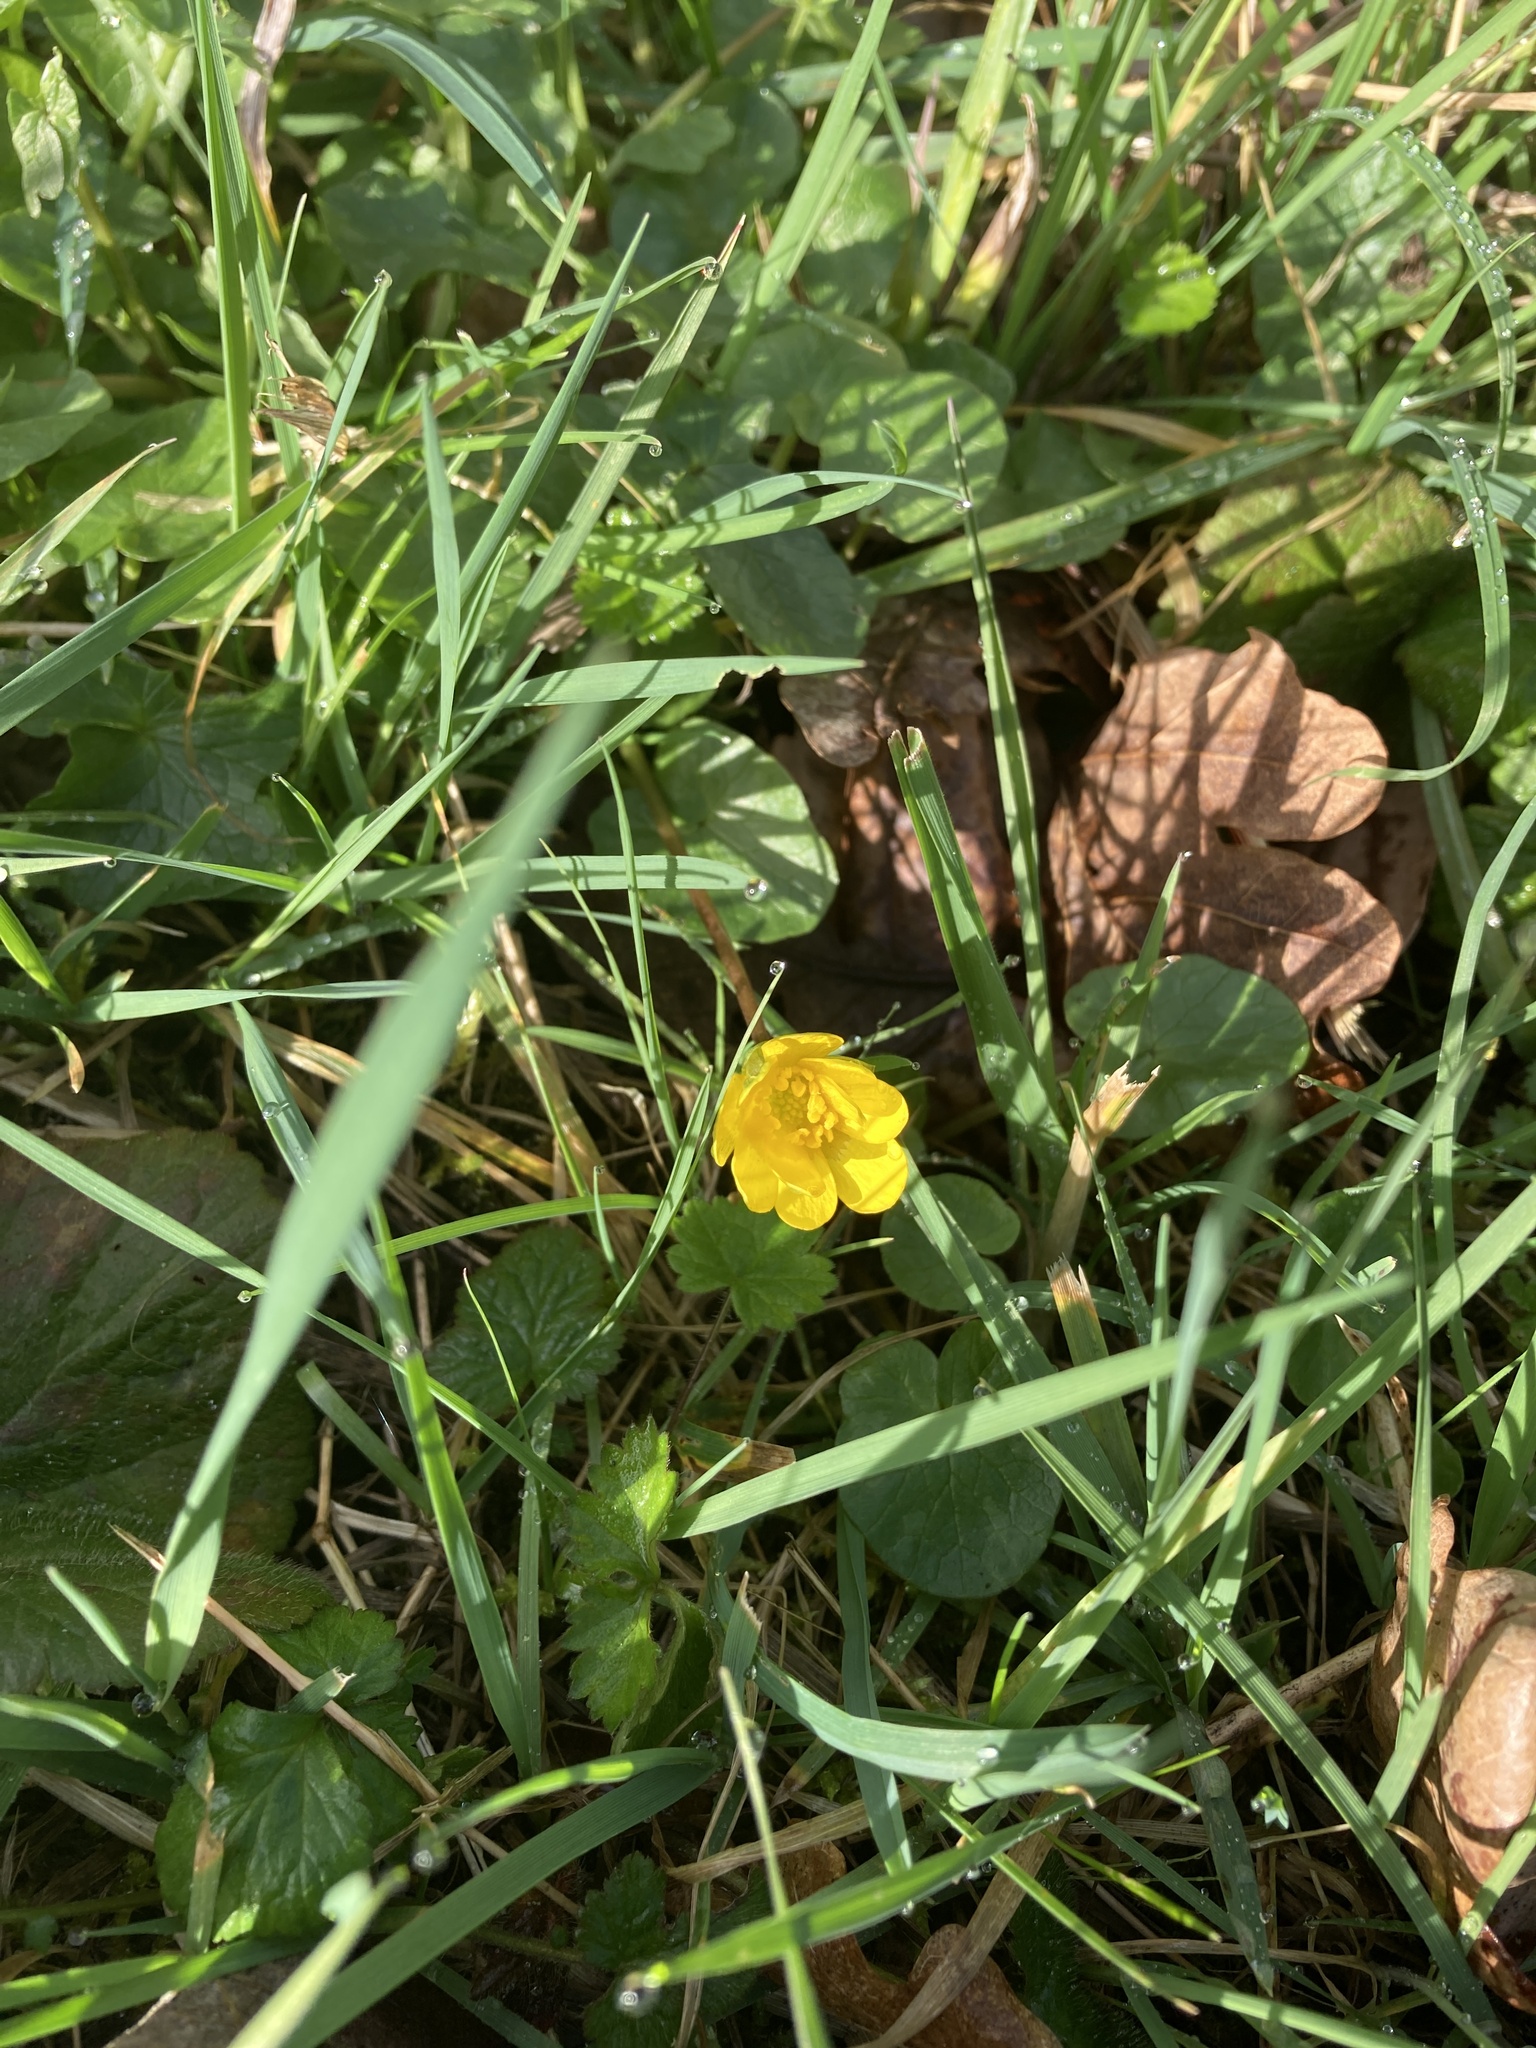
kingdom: Plantae
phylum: Tracheophyta
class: Magnoliopsida
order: Ranunculales
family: Ranunculaceae
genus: Ficaria
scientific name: Ficaria verna
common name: Lesser celandine
